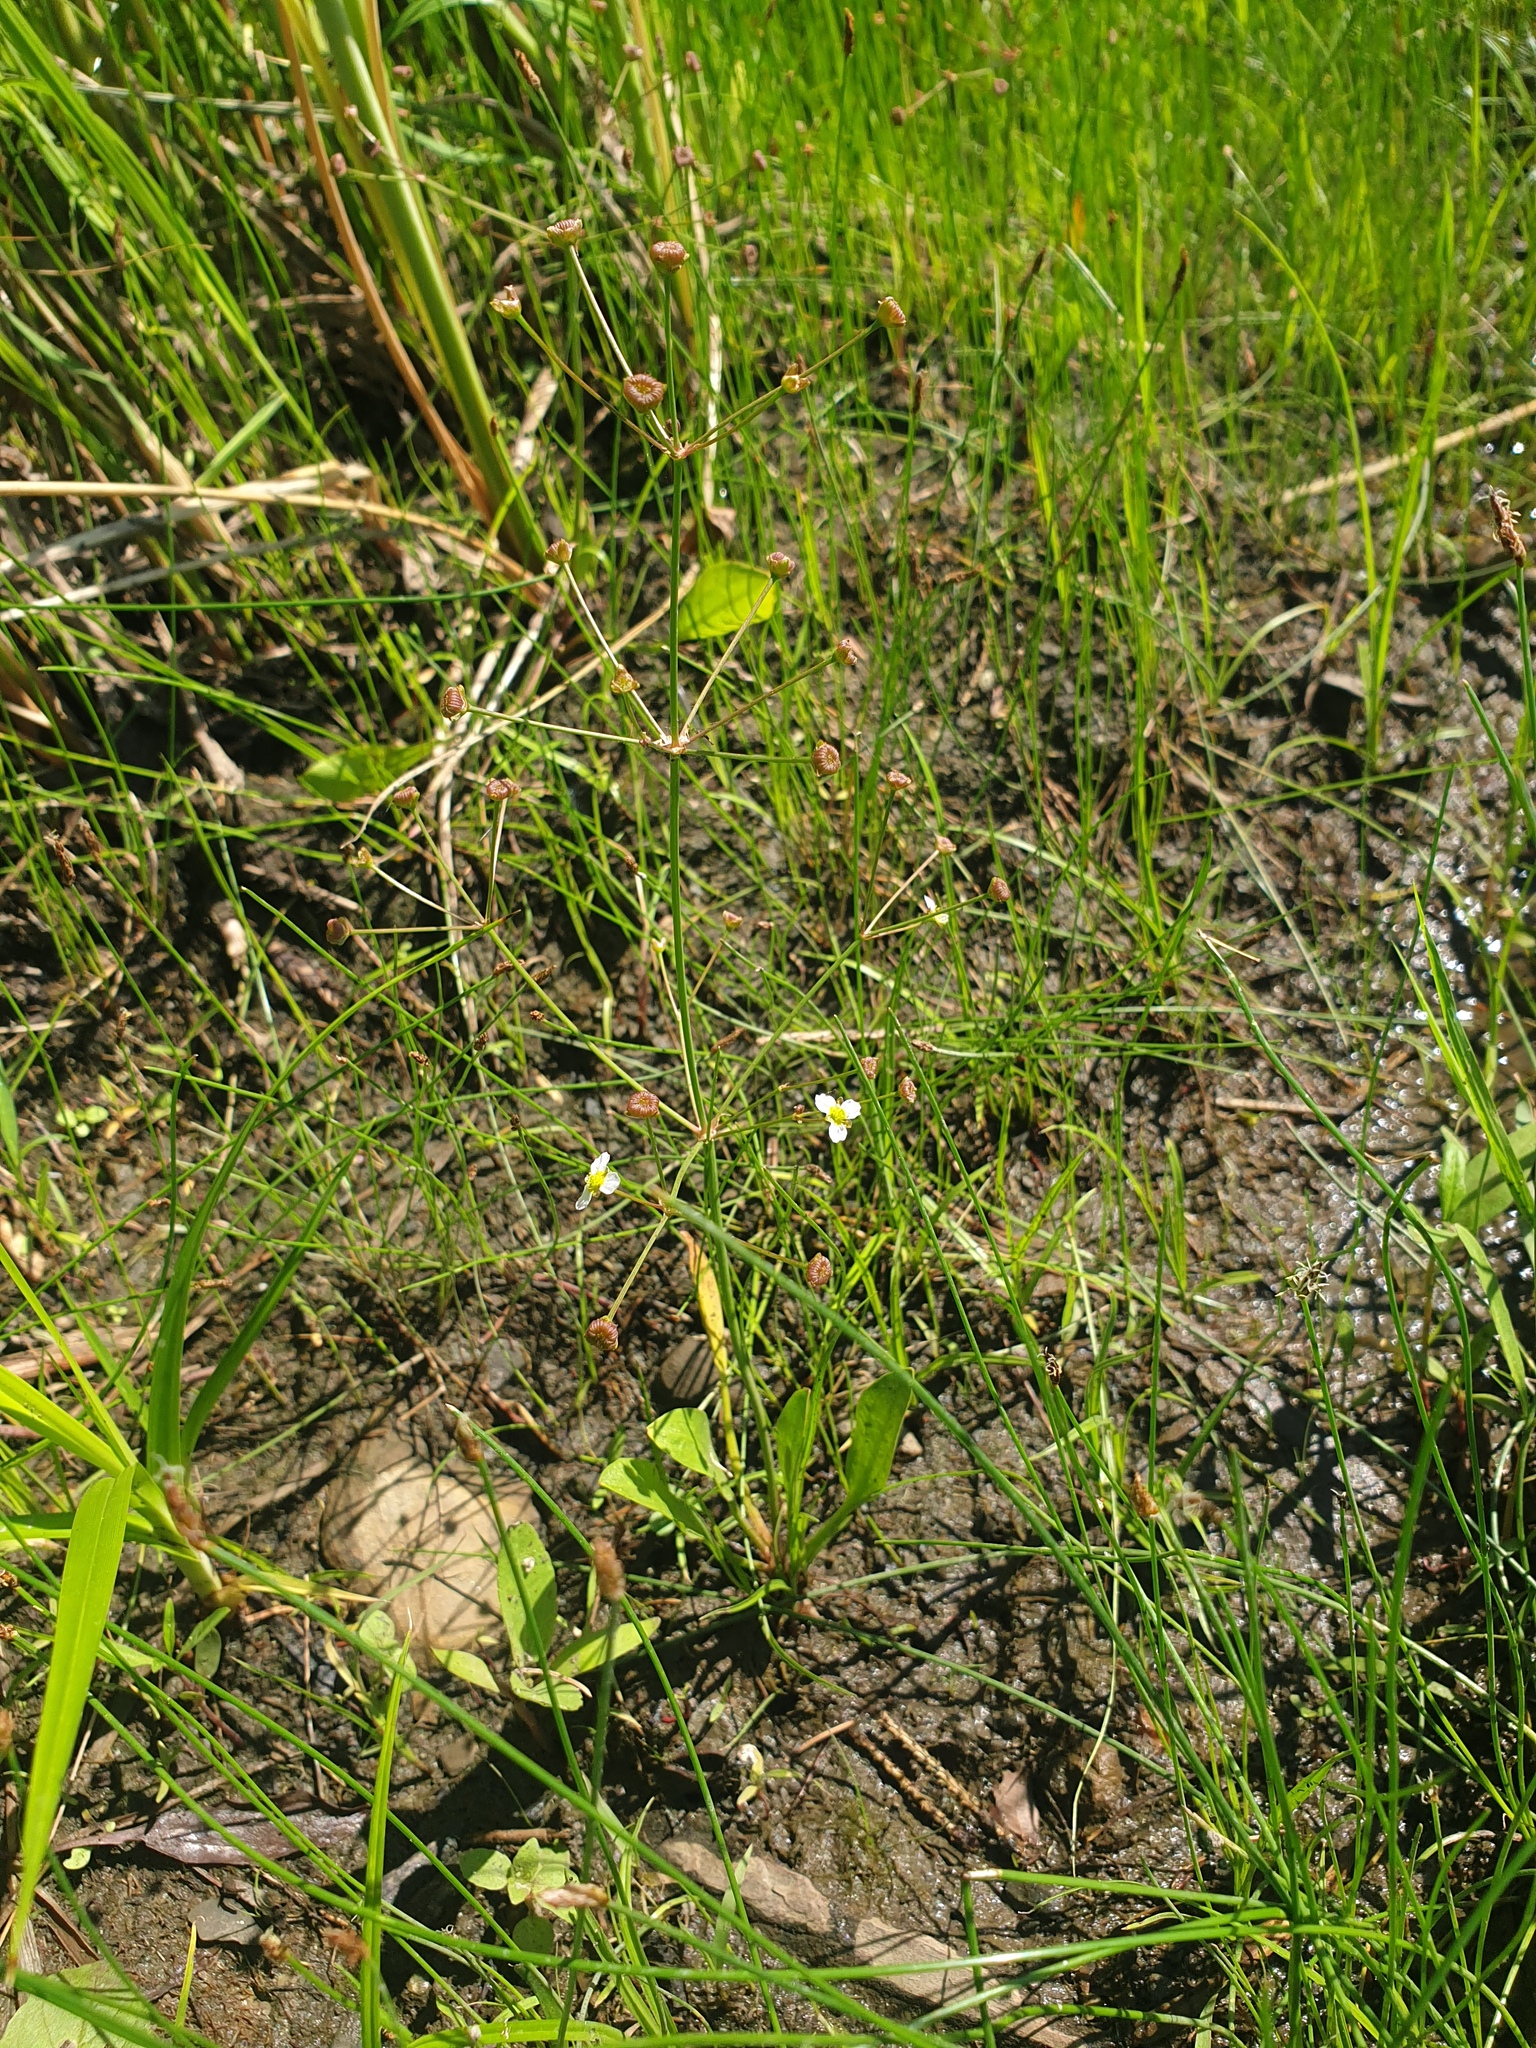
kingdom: Plantae
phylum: Tracheophyta
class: Liliopsida
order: Alismatales
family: Alismataceae
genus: Alisma
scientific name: Alisma triviale
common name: Northern water-plantain
